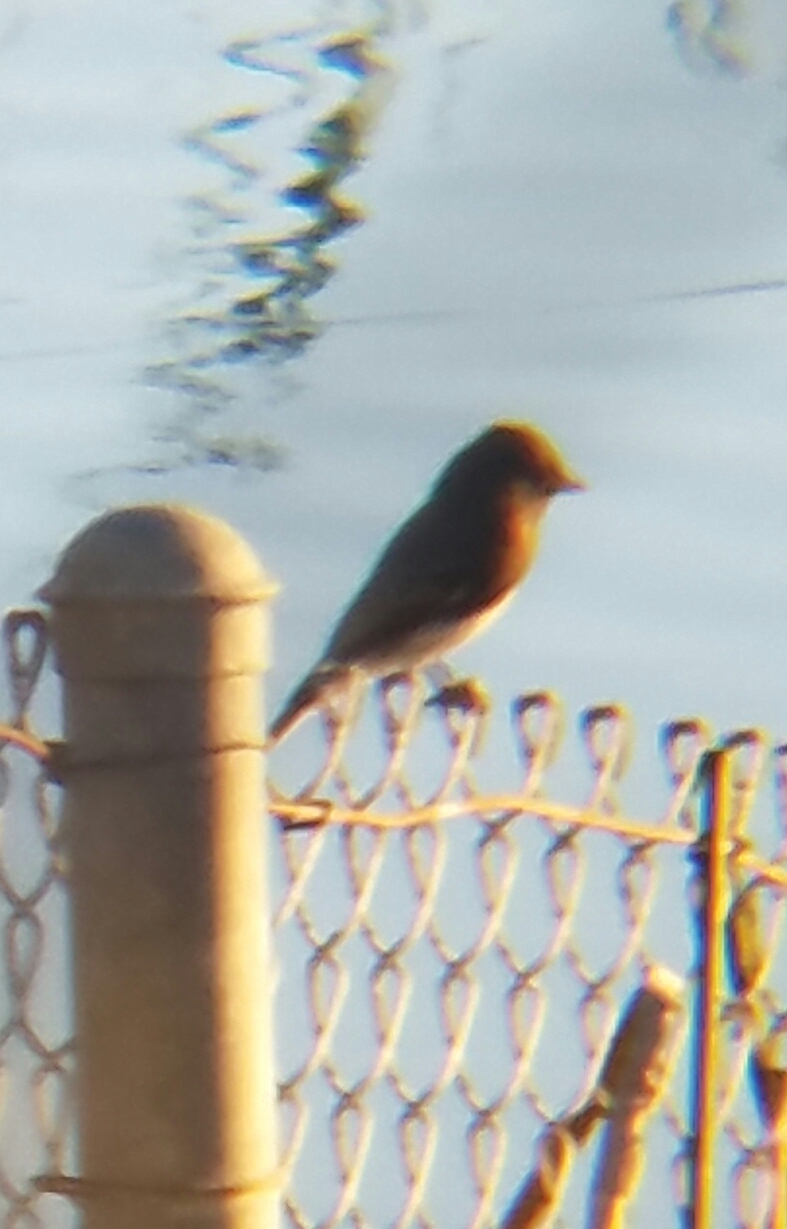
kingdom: Animalia
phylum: Chordata
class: Aves
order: Passeriformes
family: Tyrannidae
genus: Sayornis
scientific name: Sayornis nigricans
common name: Black phoebe
